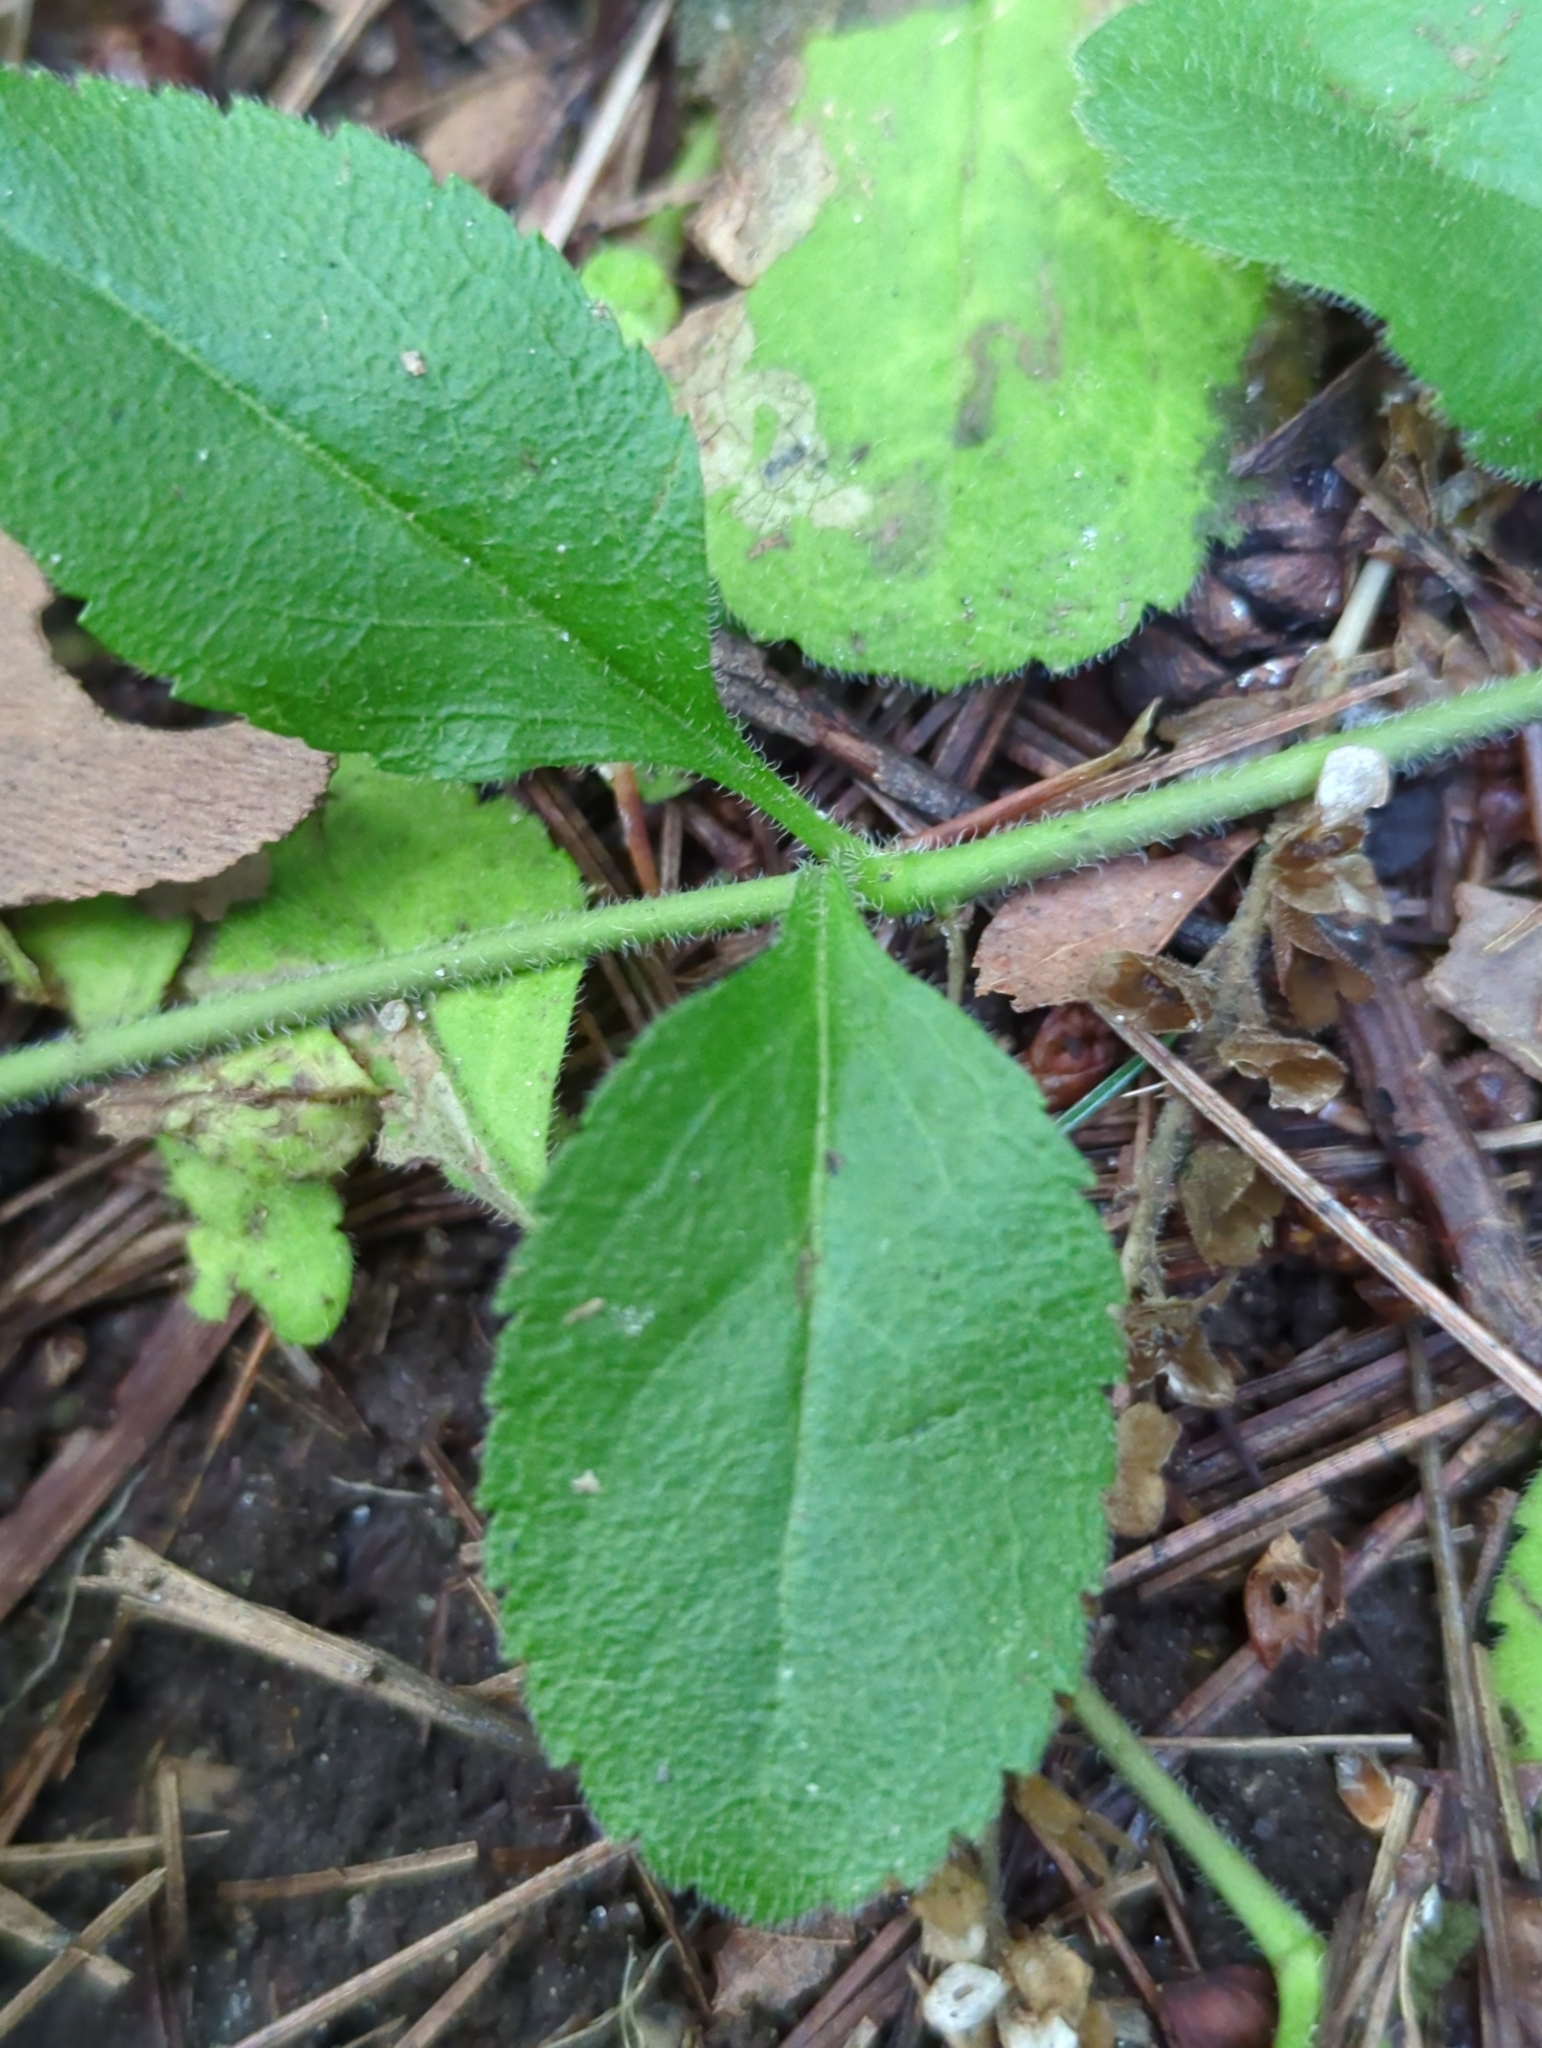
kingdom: Plantae
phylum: Tracheophyta
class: Magnoliopsida
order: Lamiales
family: Plantaginaceae
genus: Veronica
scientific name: Veronica officinalis
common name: Common speedwell
